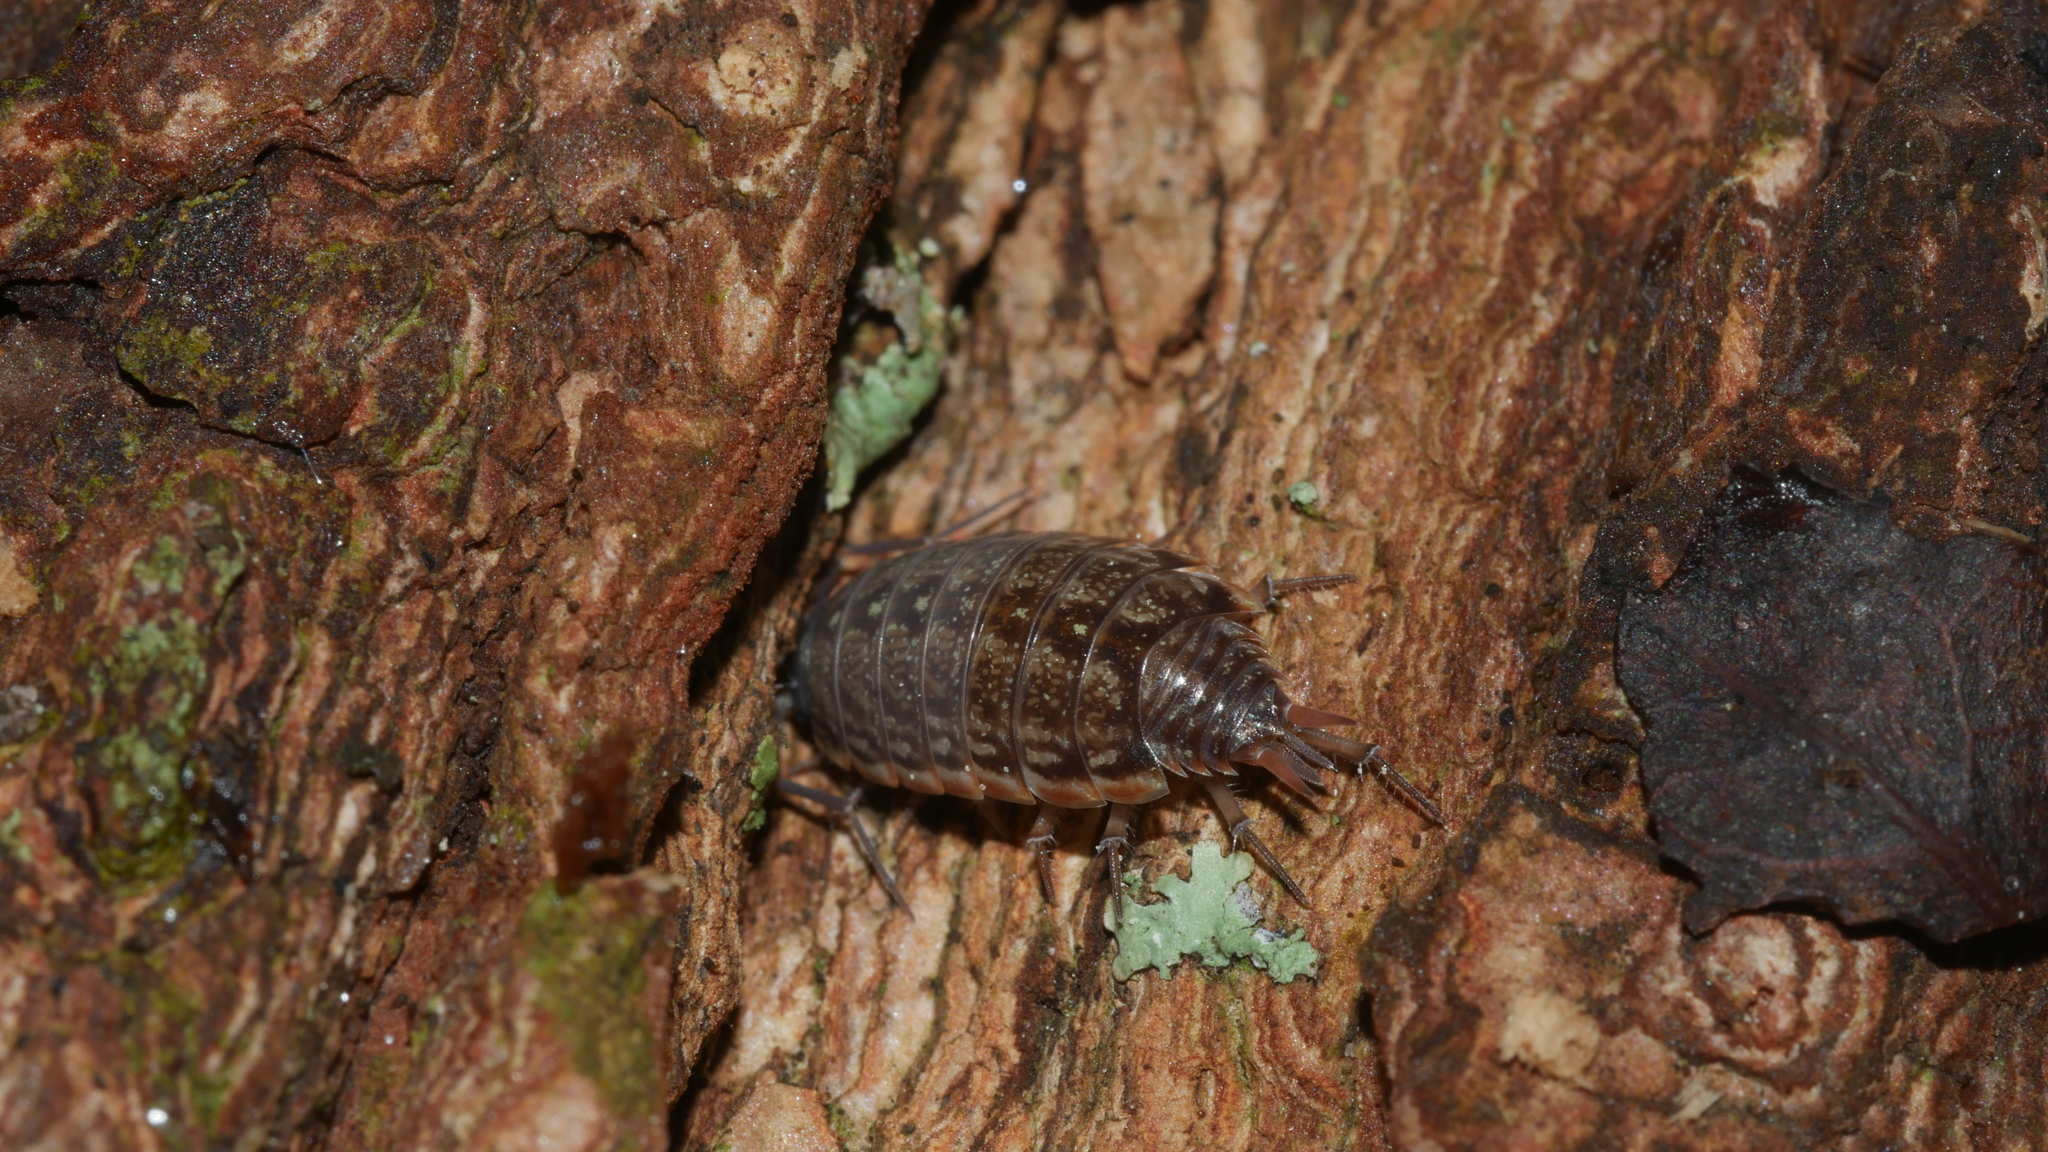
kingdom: Animalia
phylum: Arthropoda
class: Malacostraca
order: Isopoda
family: Philosciidae
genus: Philoscia
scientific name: Philoscia muscorum
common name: Common striped woodlouse
